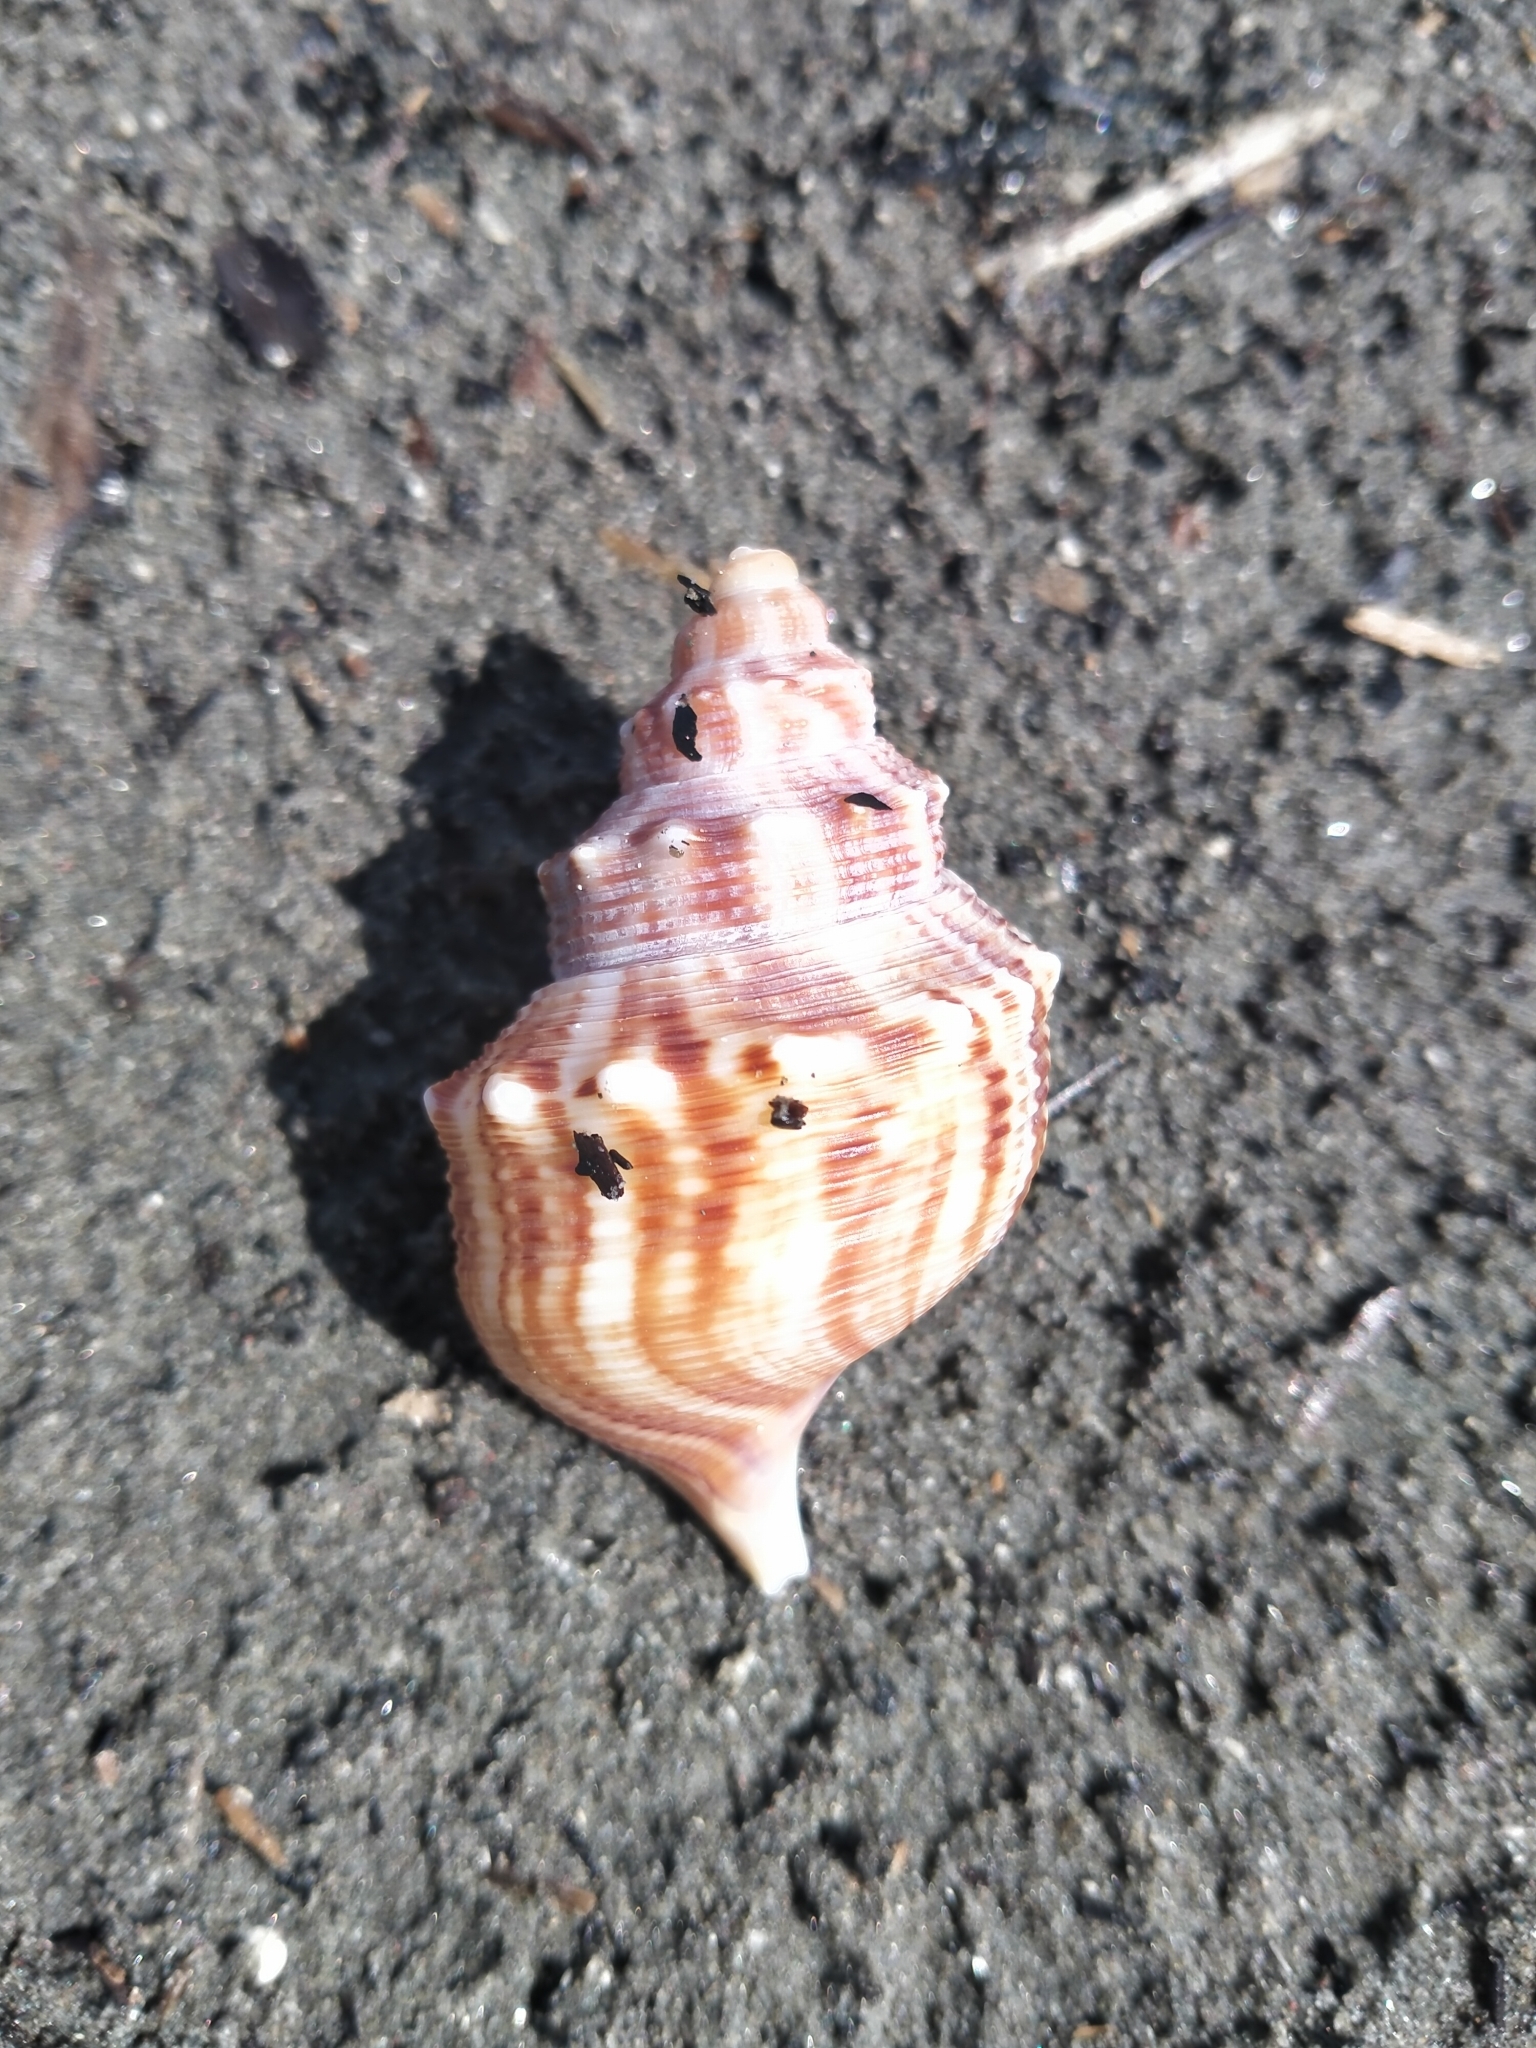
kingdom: Animalia
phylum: Mollusca
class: Gastropoda
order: Littorinimorpha
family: Struthiolariidae
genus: Struthiolaria
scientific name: Struthiolaria papulosa
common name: Large ostrich foot
